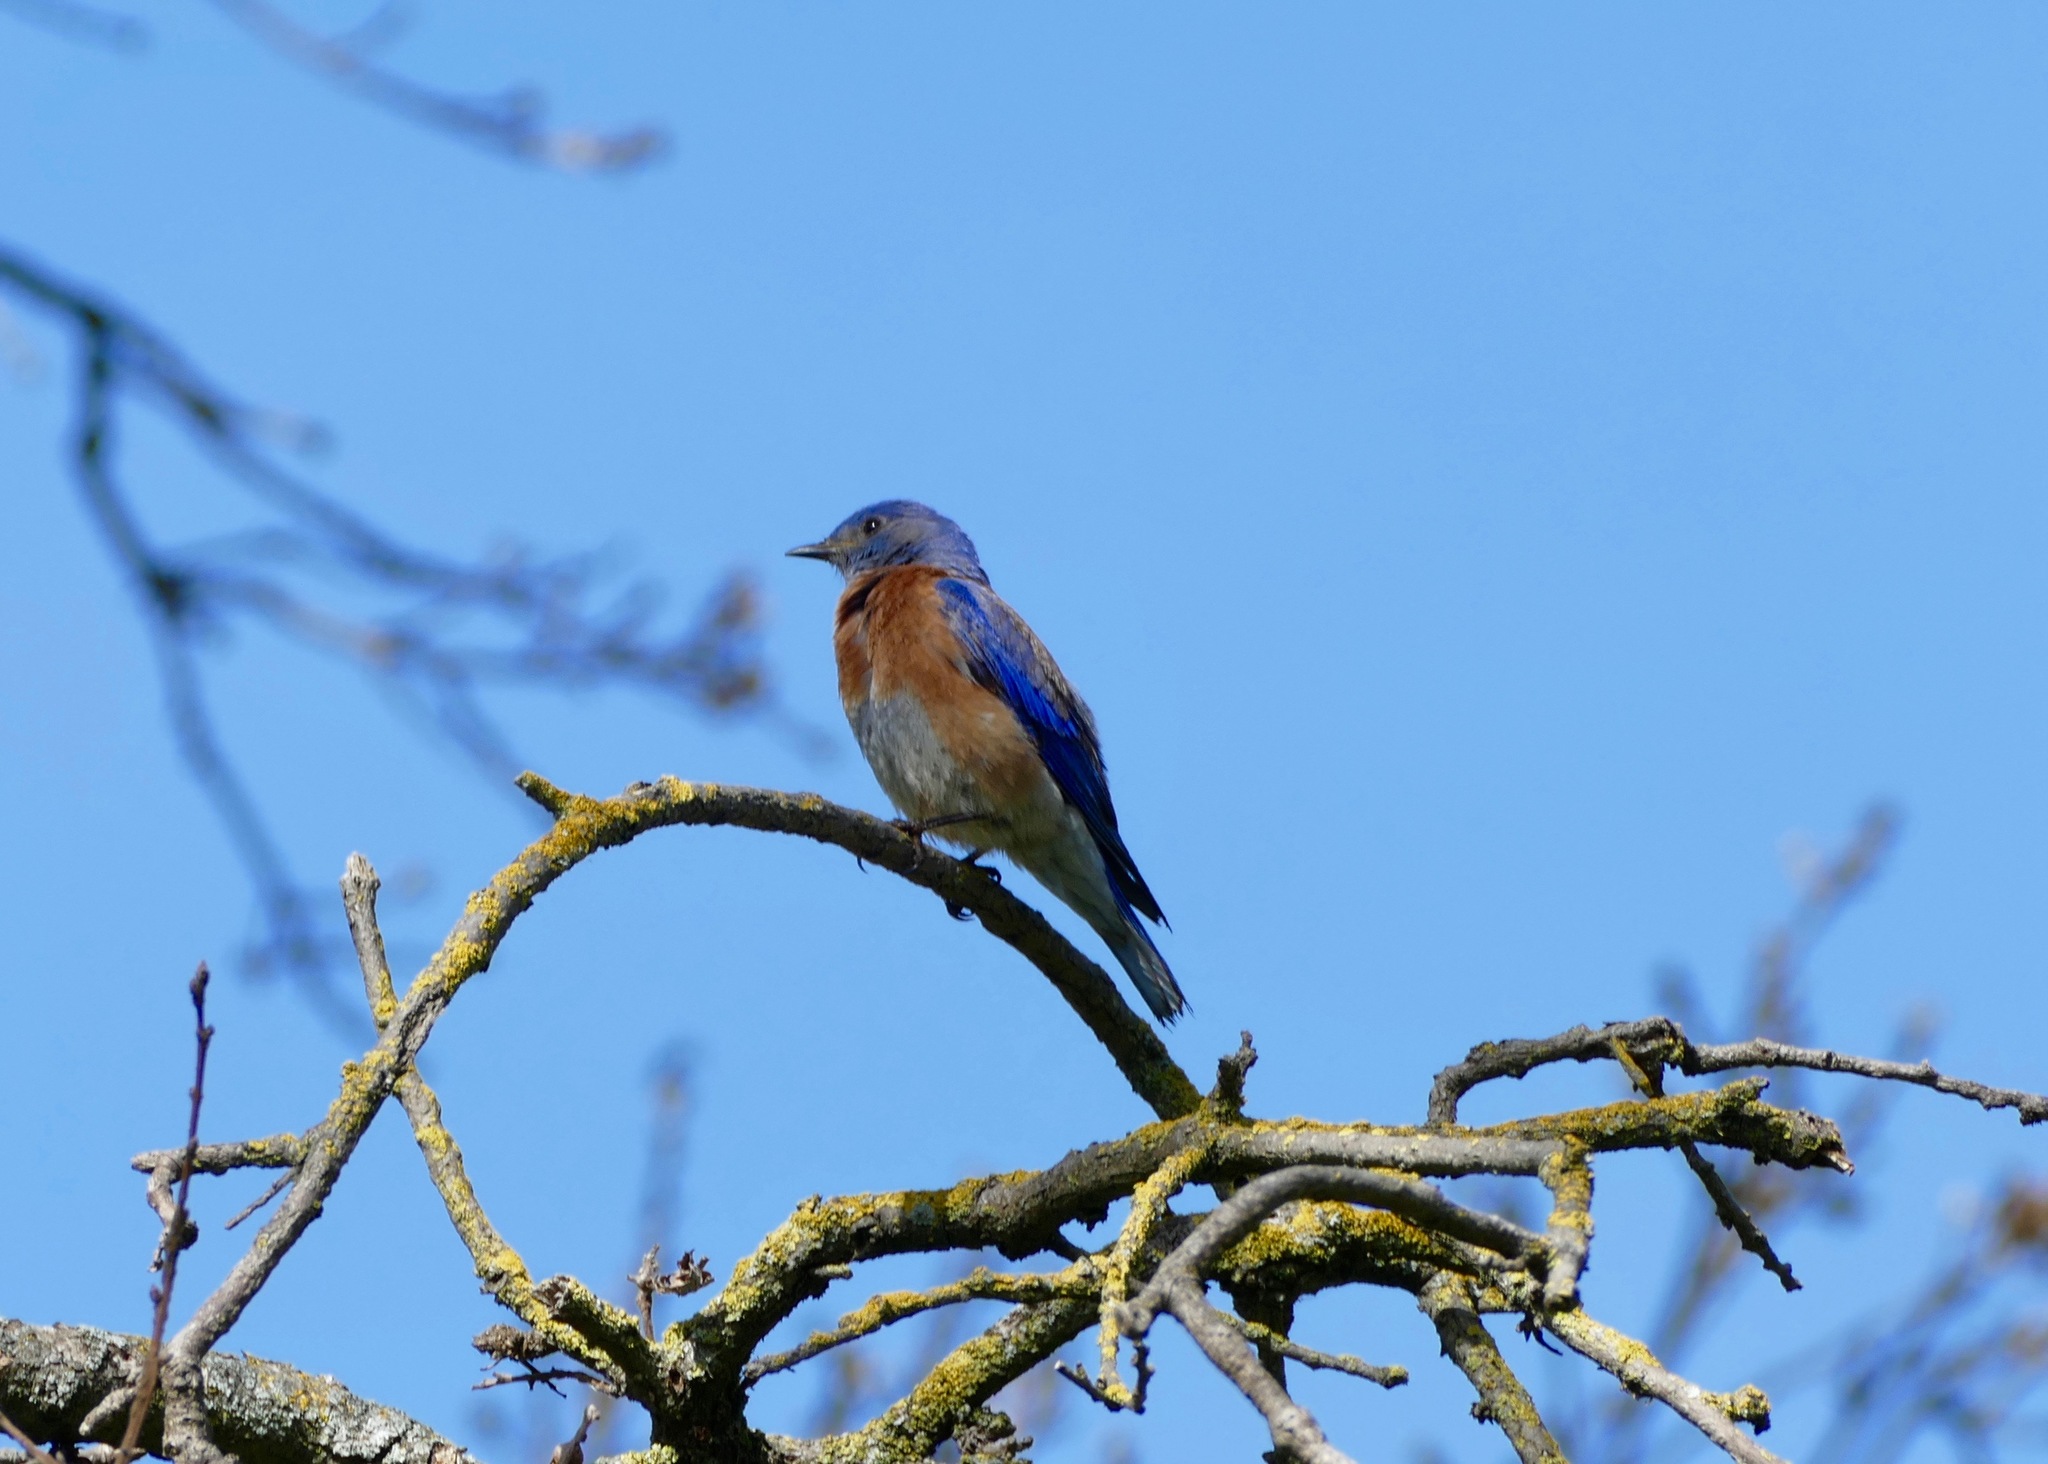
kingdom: Animalia
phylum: Chordata
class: Aves
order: Passeriformes
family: Turdidae
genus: Sialia
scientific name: Sialia mexicana
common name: Western bluebird
